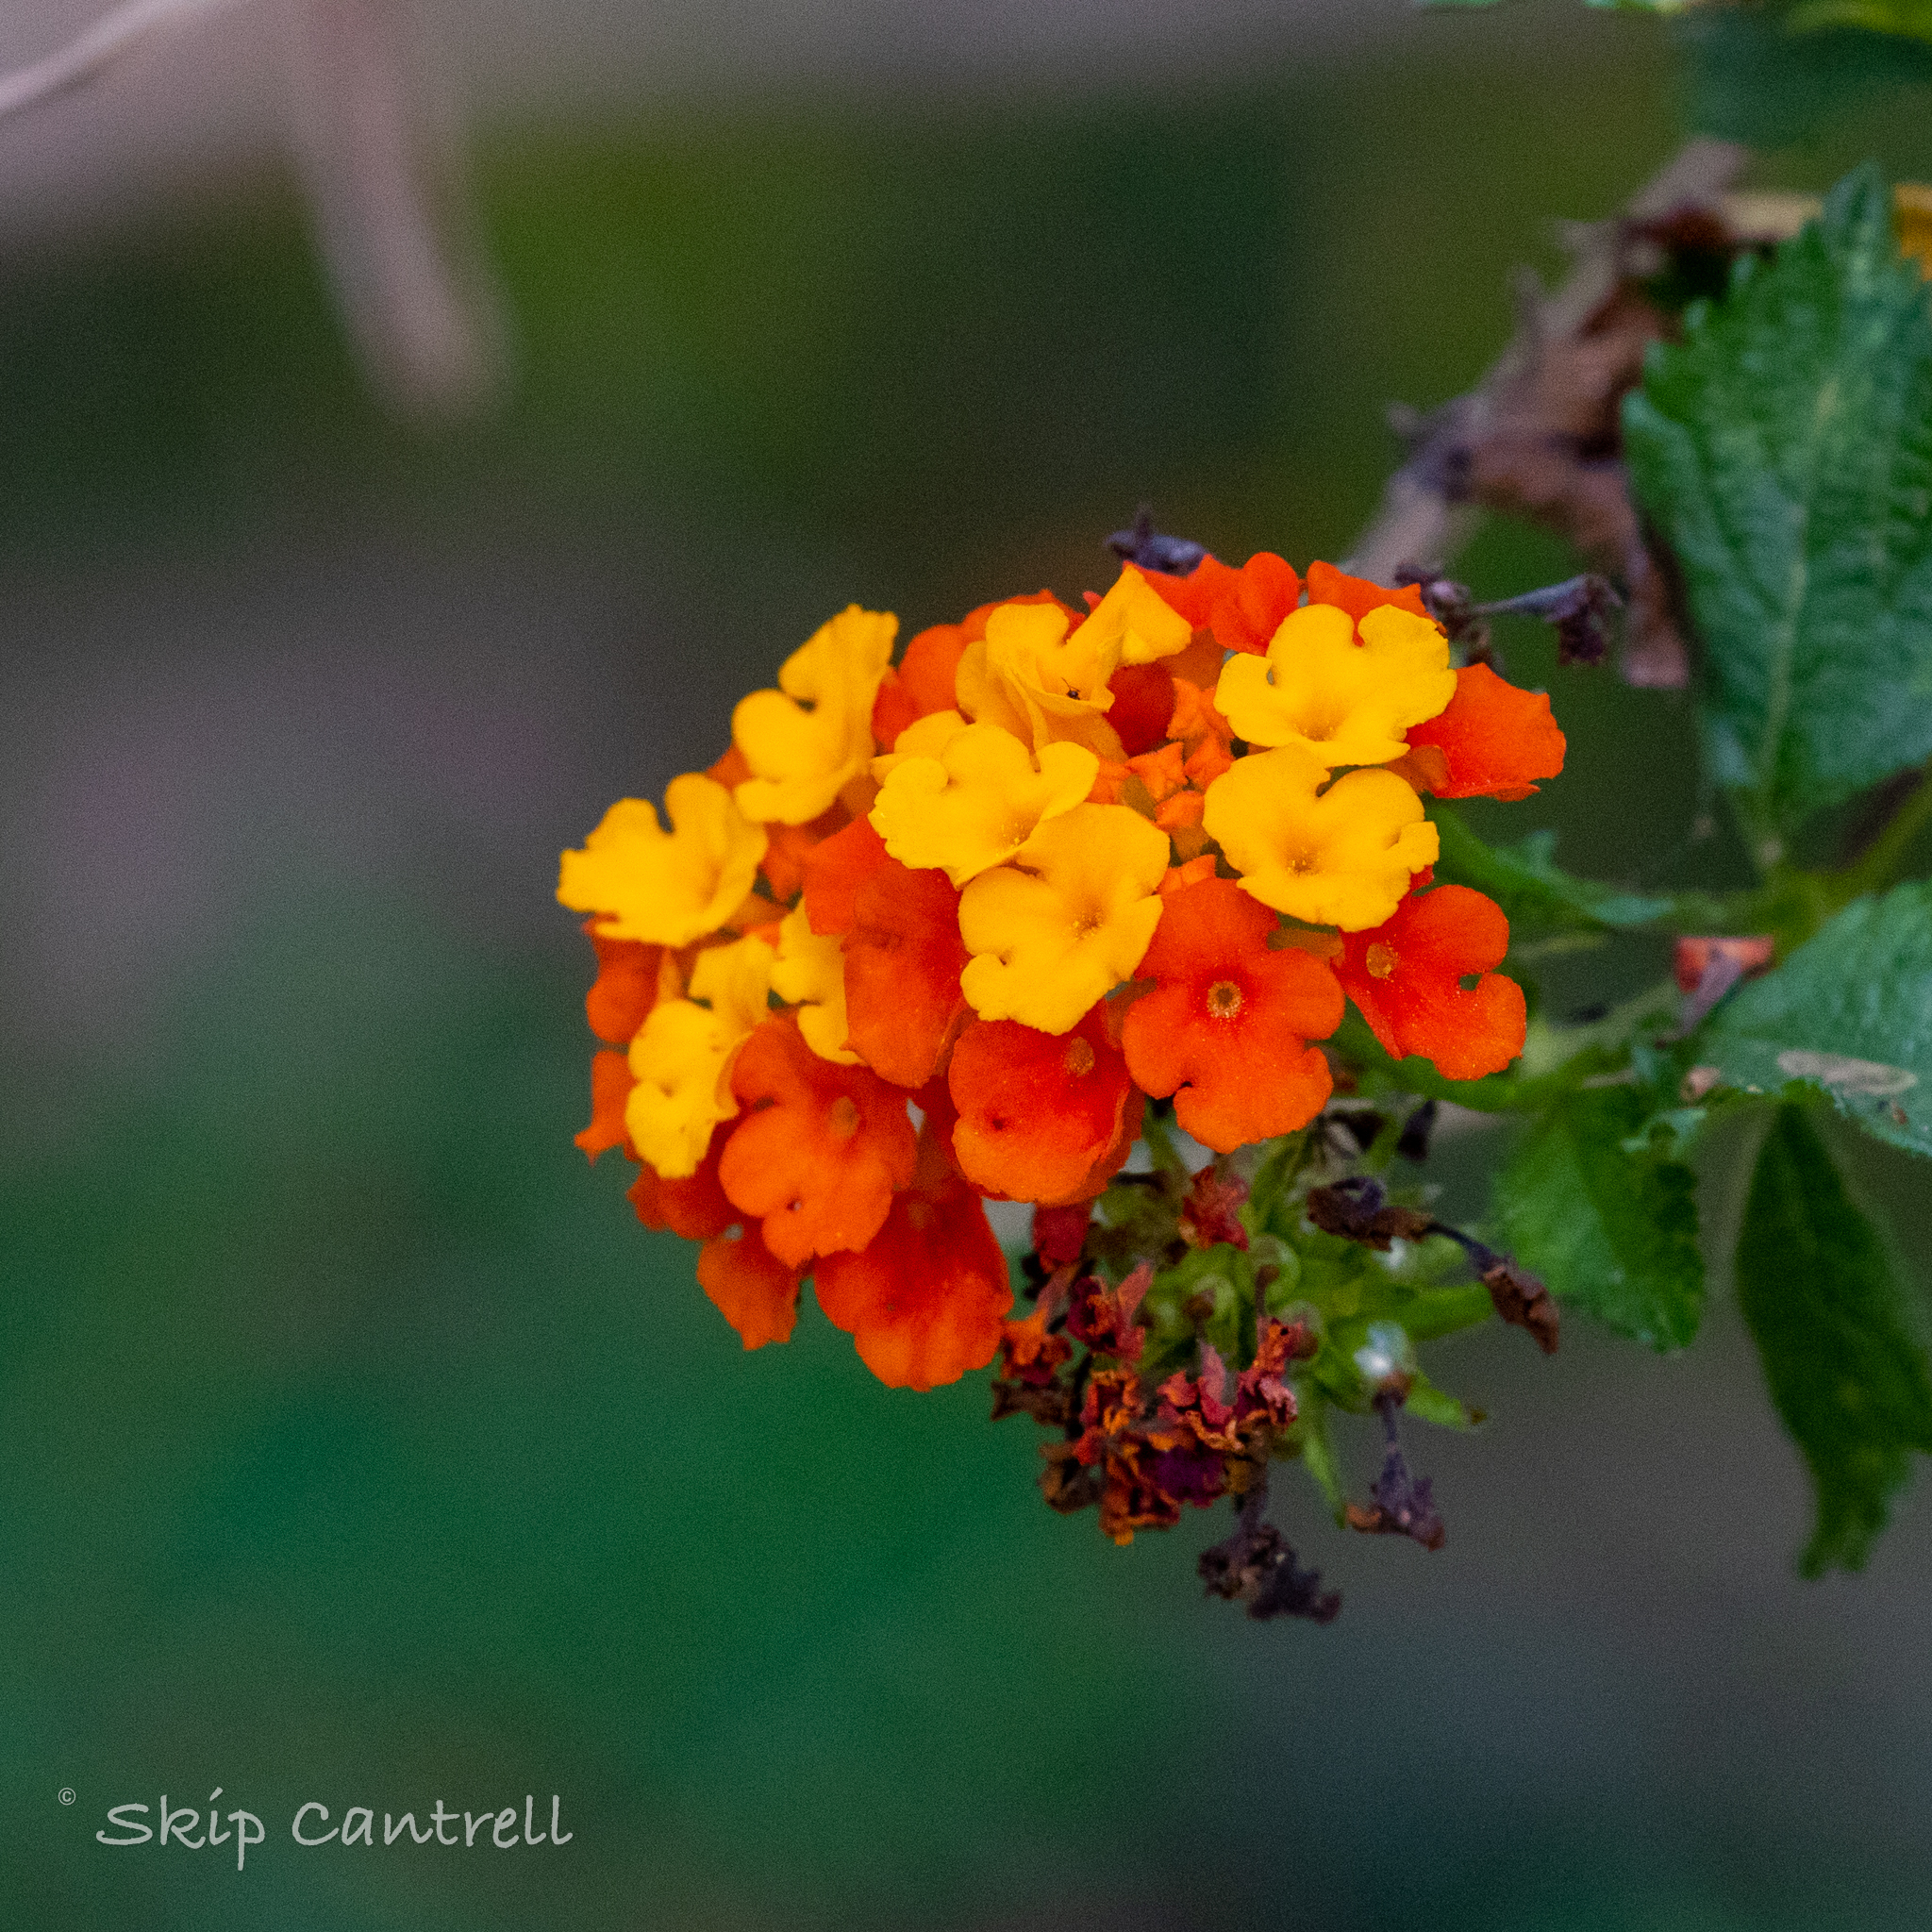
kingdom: Plantae
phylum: Tracheophyta
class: Magnoliopsida
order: Lamiales
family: Verbenaceae
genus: Lantana
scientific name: Lantana urticoides
